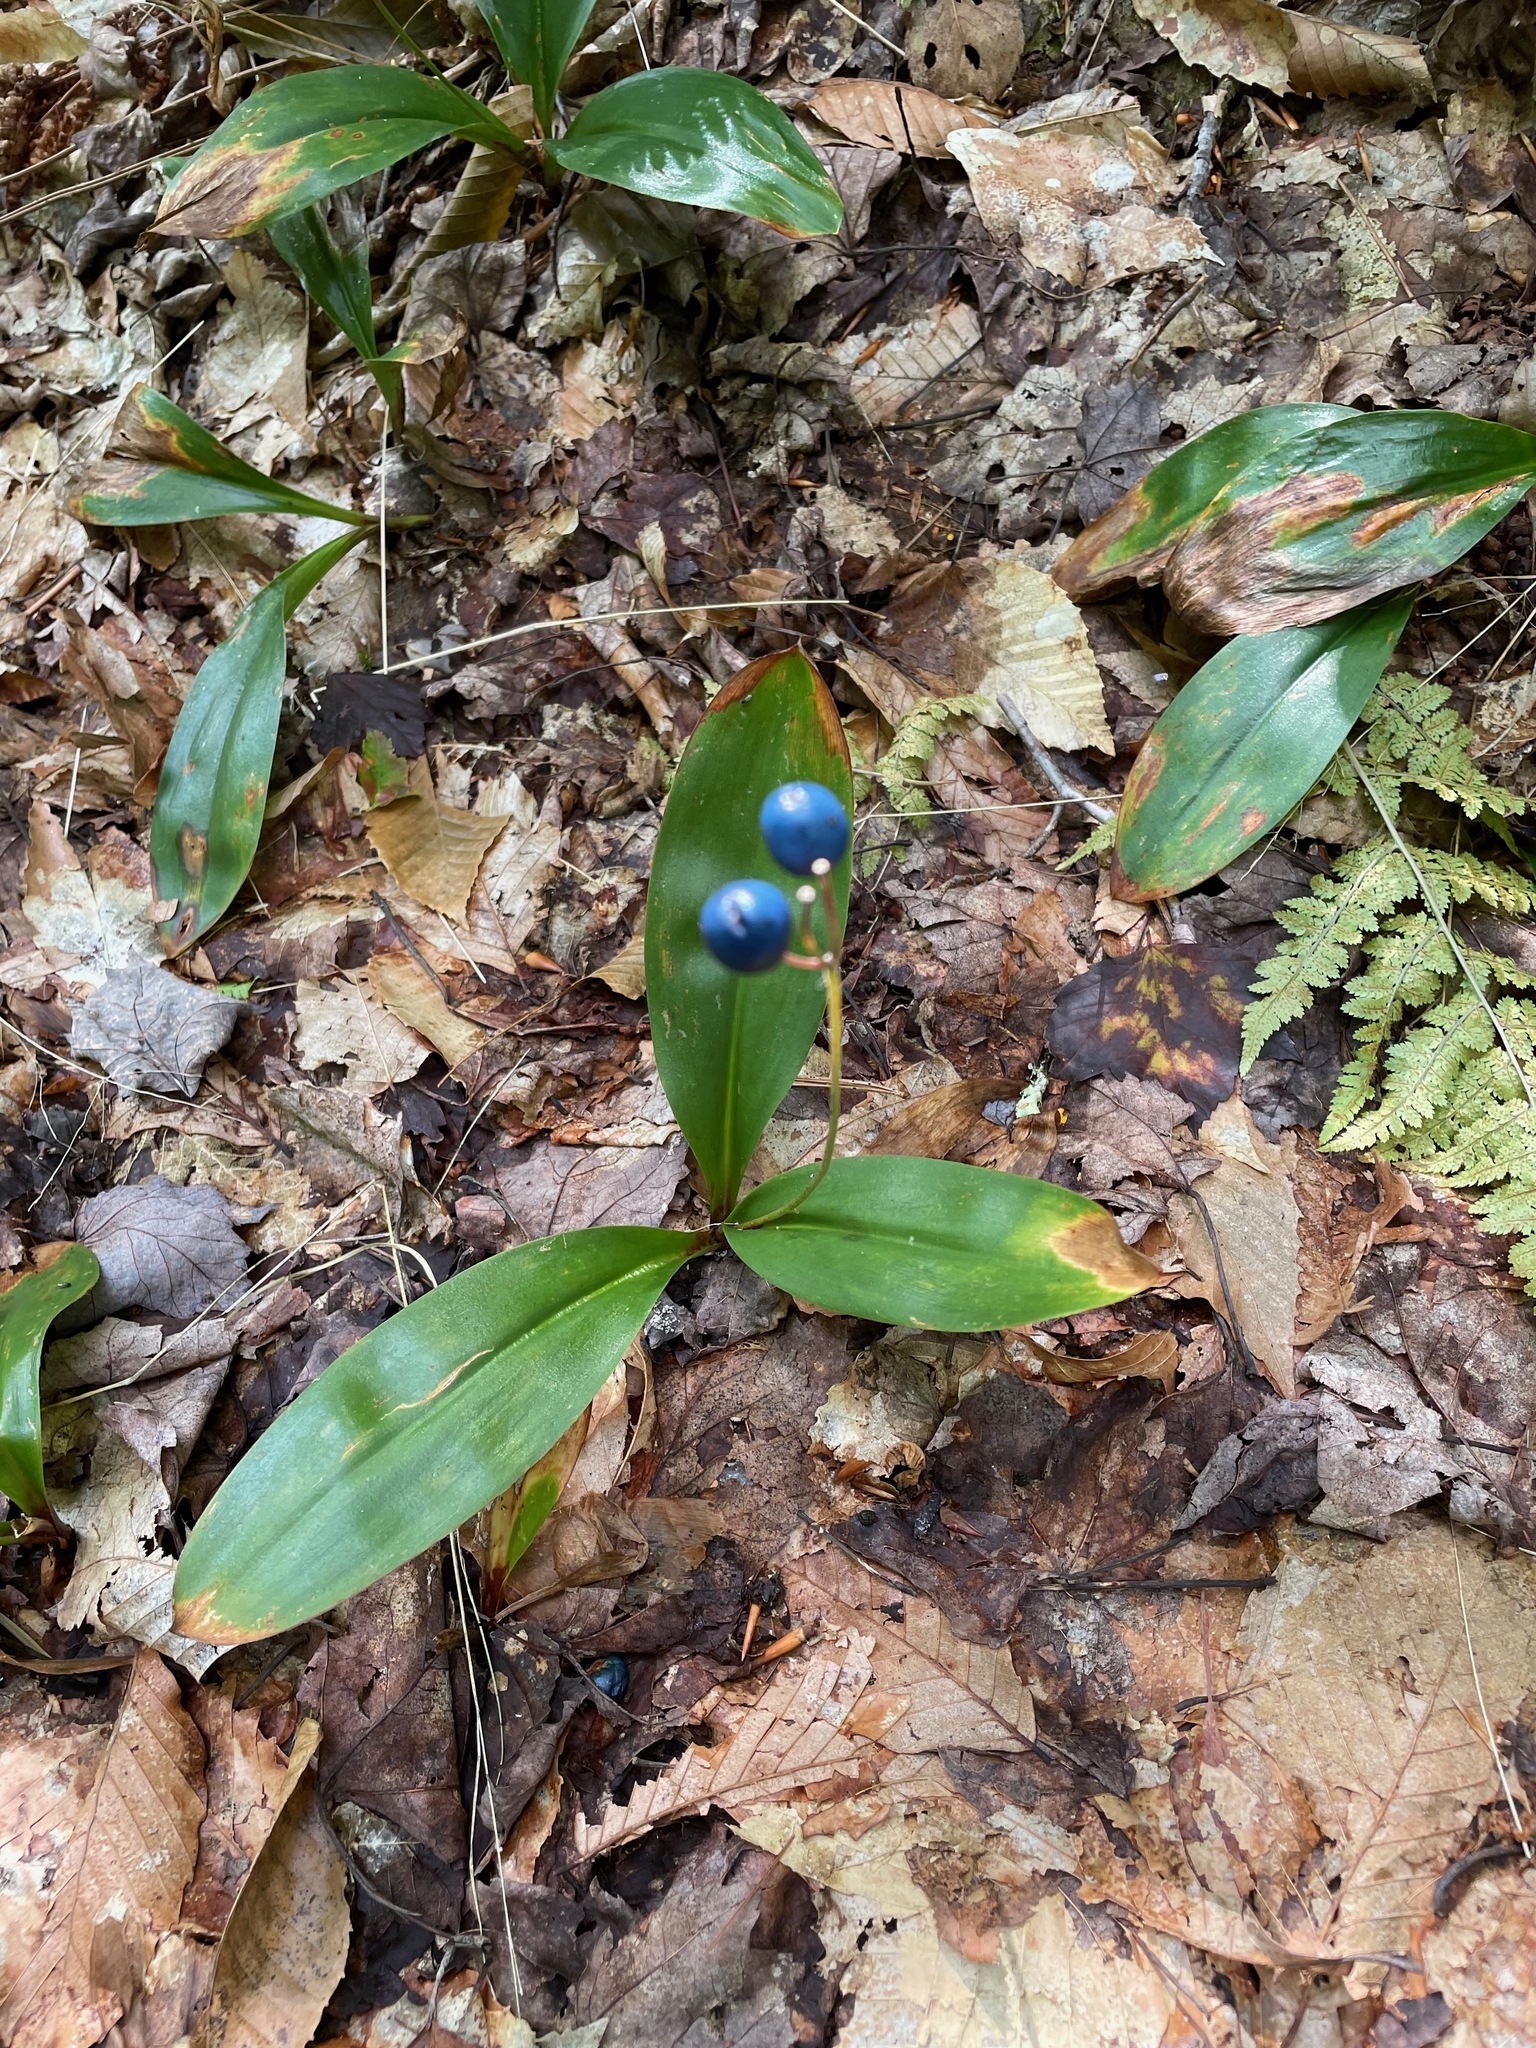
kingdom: Plantae
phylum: Tracheophyta
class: Liliopsida
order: Liliales
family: Liliaceae
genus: Clintonia
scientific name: Clintonia borealis
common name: Yellow clintonia
